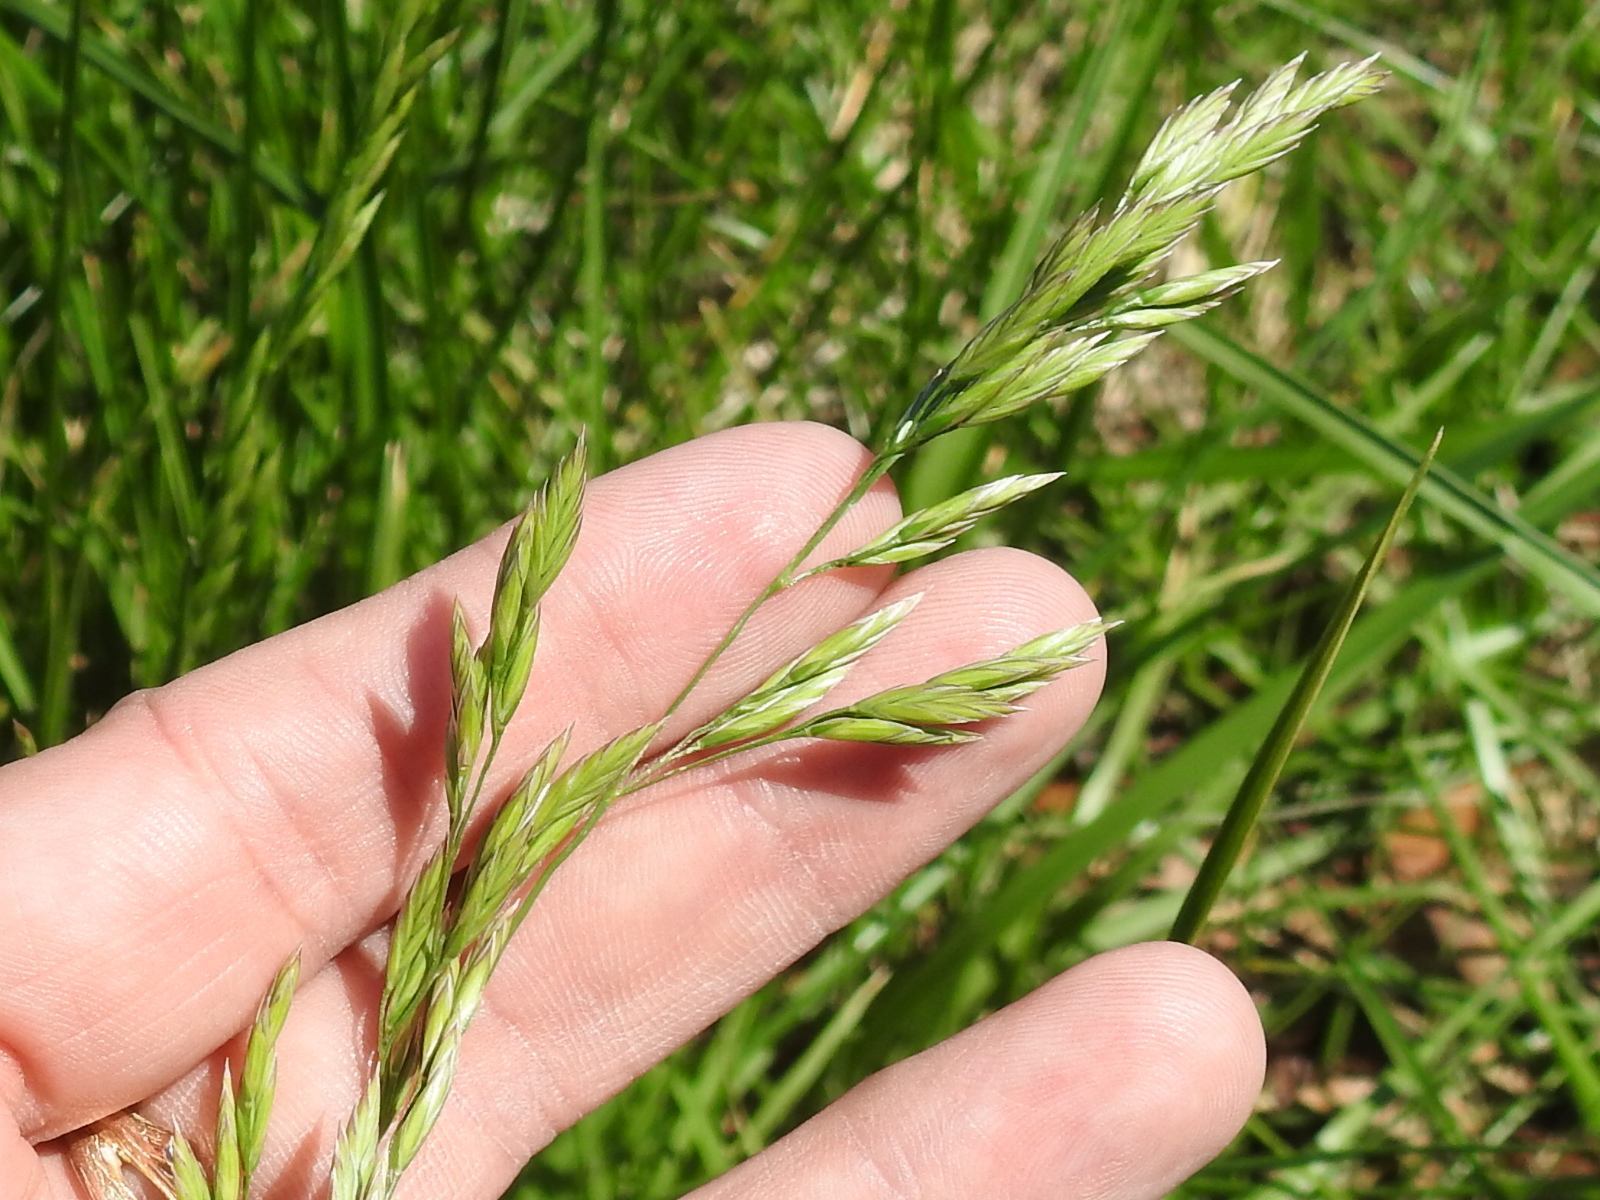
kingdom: Plantae
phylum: Tracheophyta
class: Liliopsida
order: Poales
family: Poaceae
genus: Lolium
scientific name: Lolium arundinaceum
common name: Reed fescue
